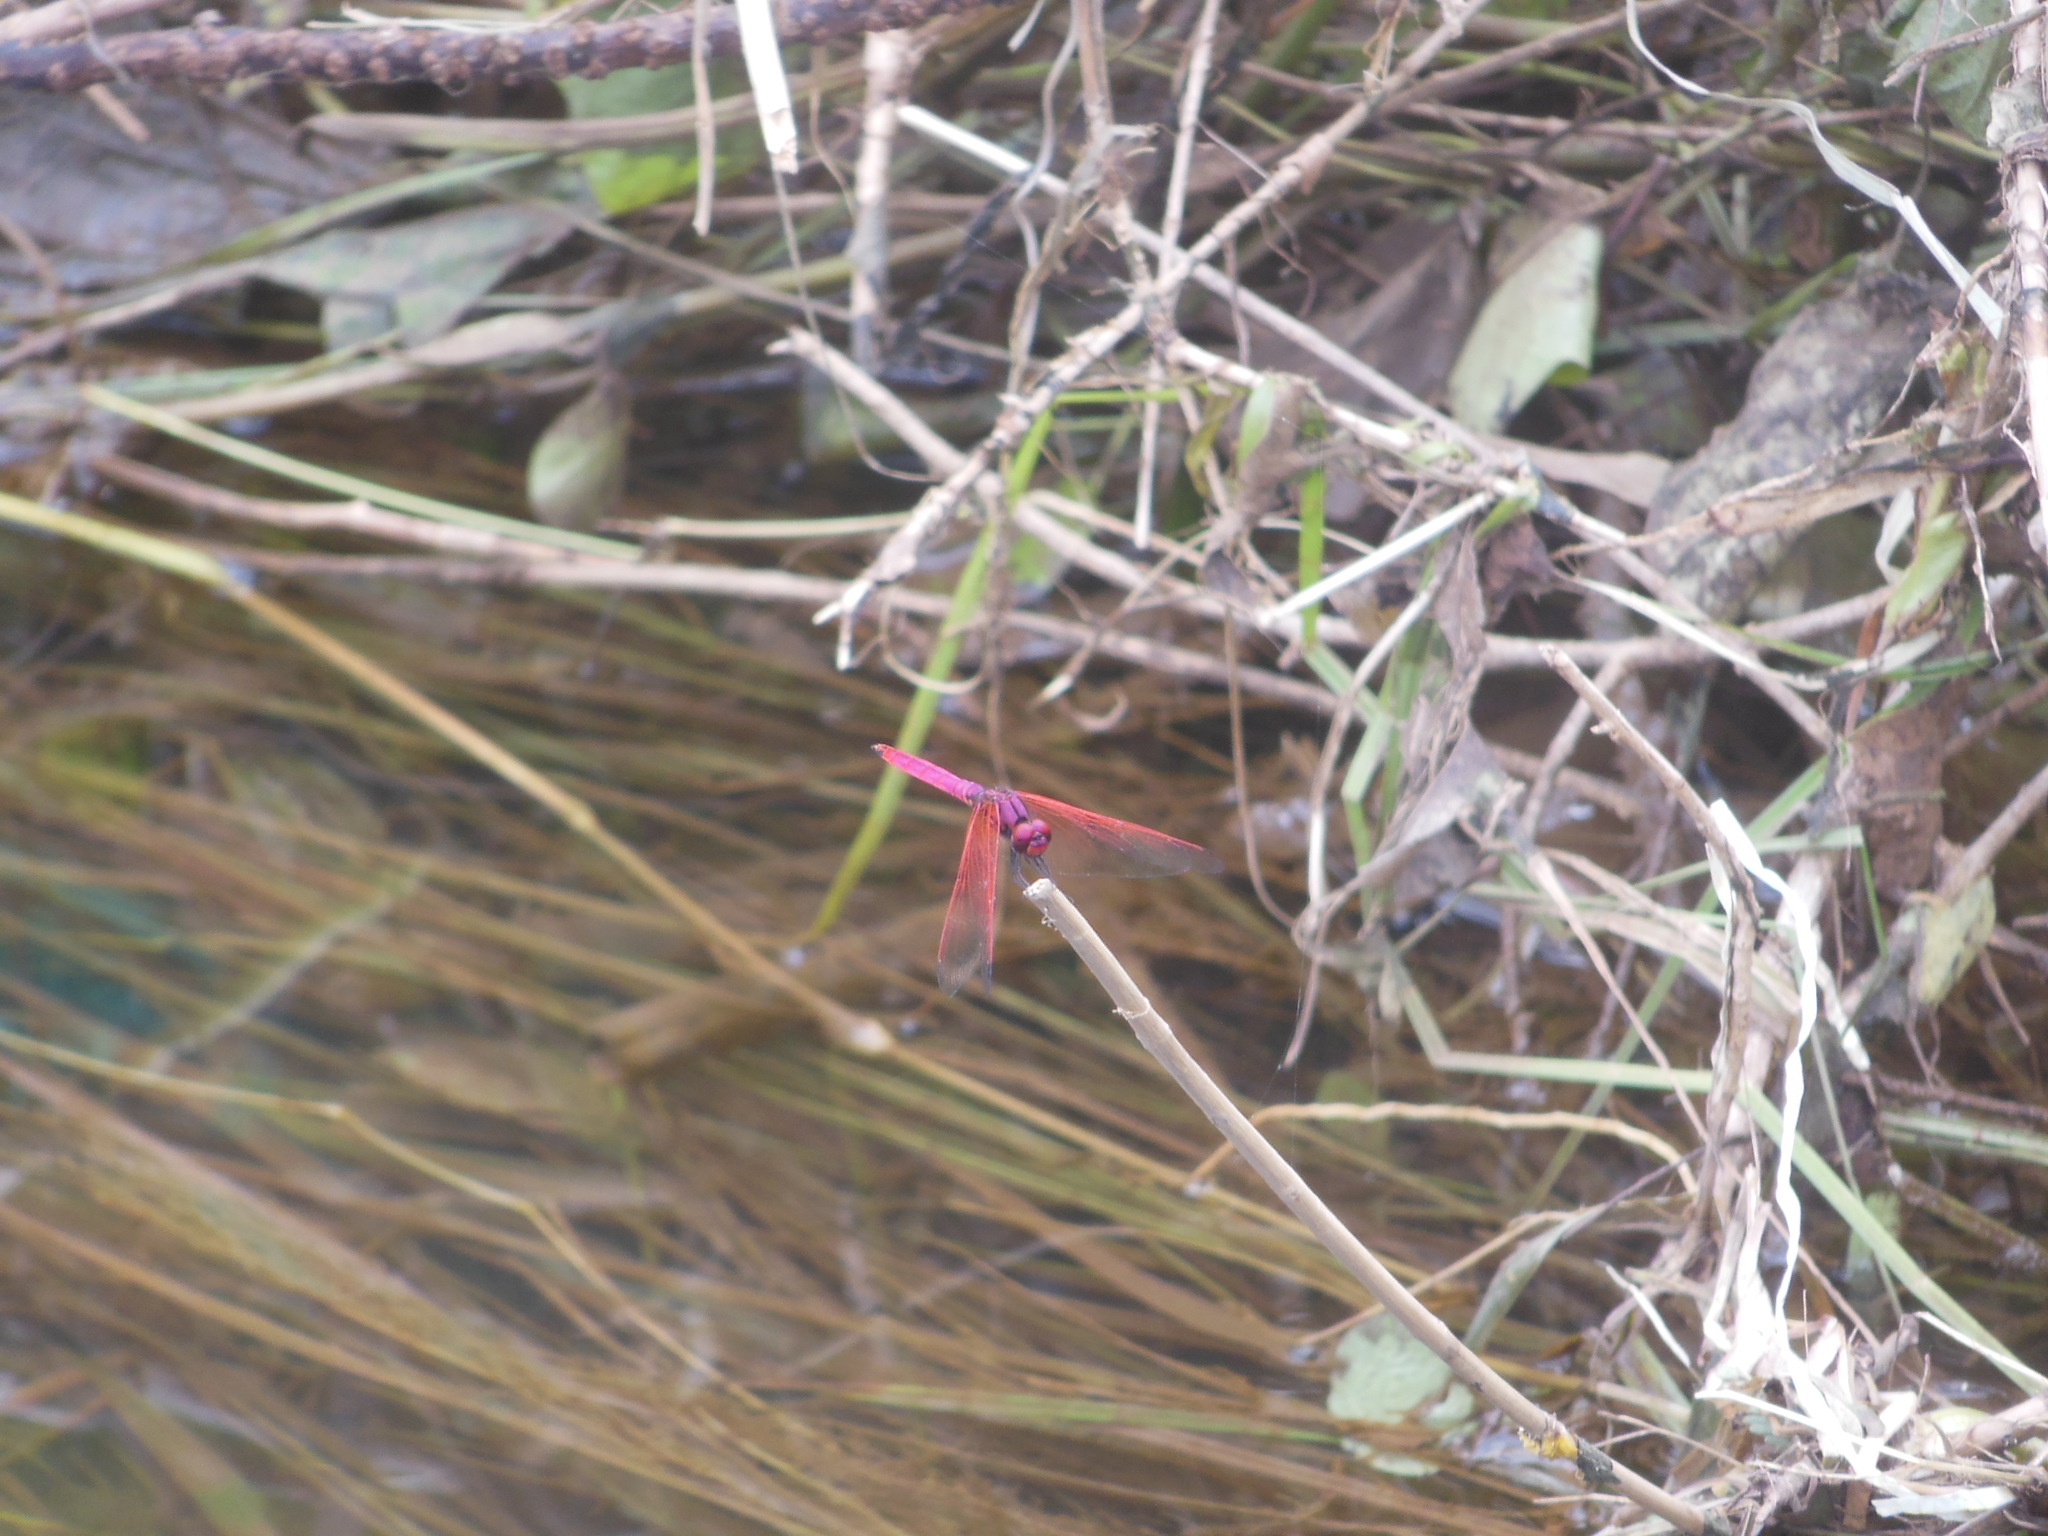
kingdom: Animalia
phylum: Arthropoda
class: Insecta
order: Odonata
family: Libellulidae
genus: Trithemis
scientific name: Trithemis aurora
